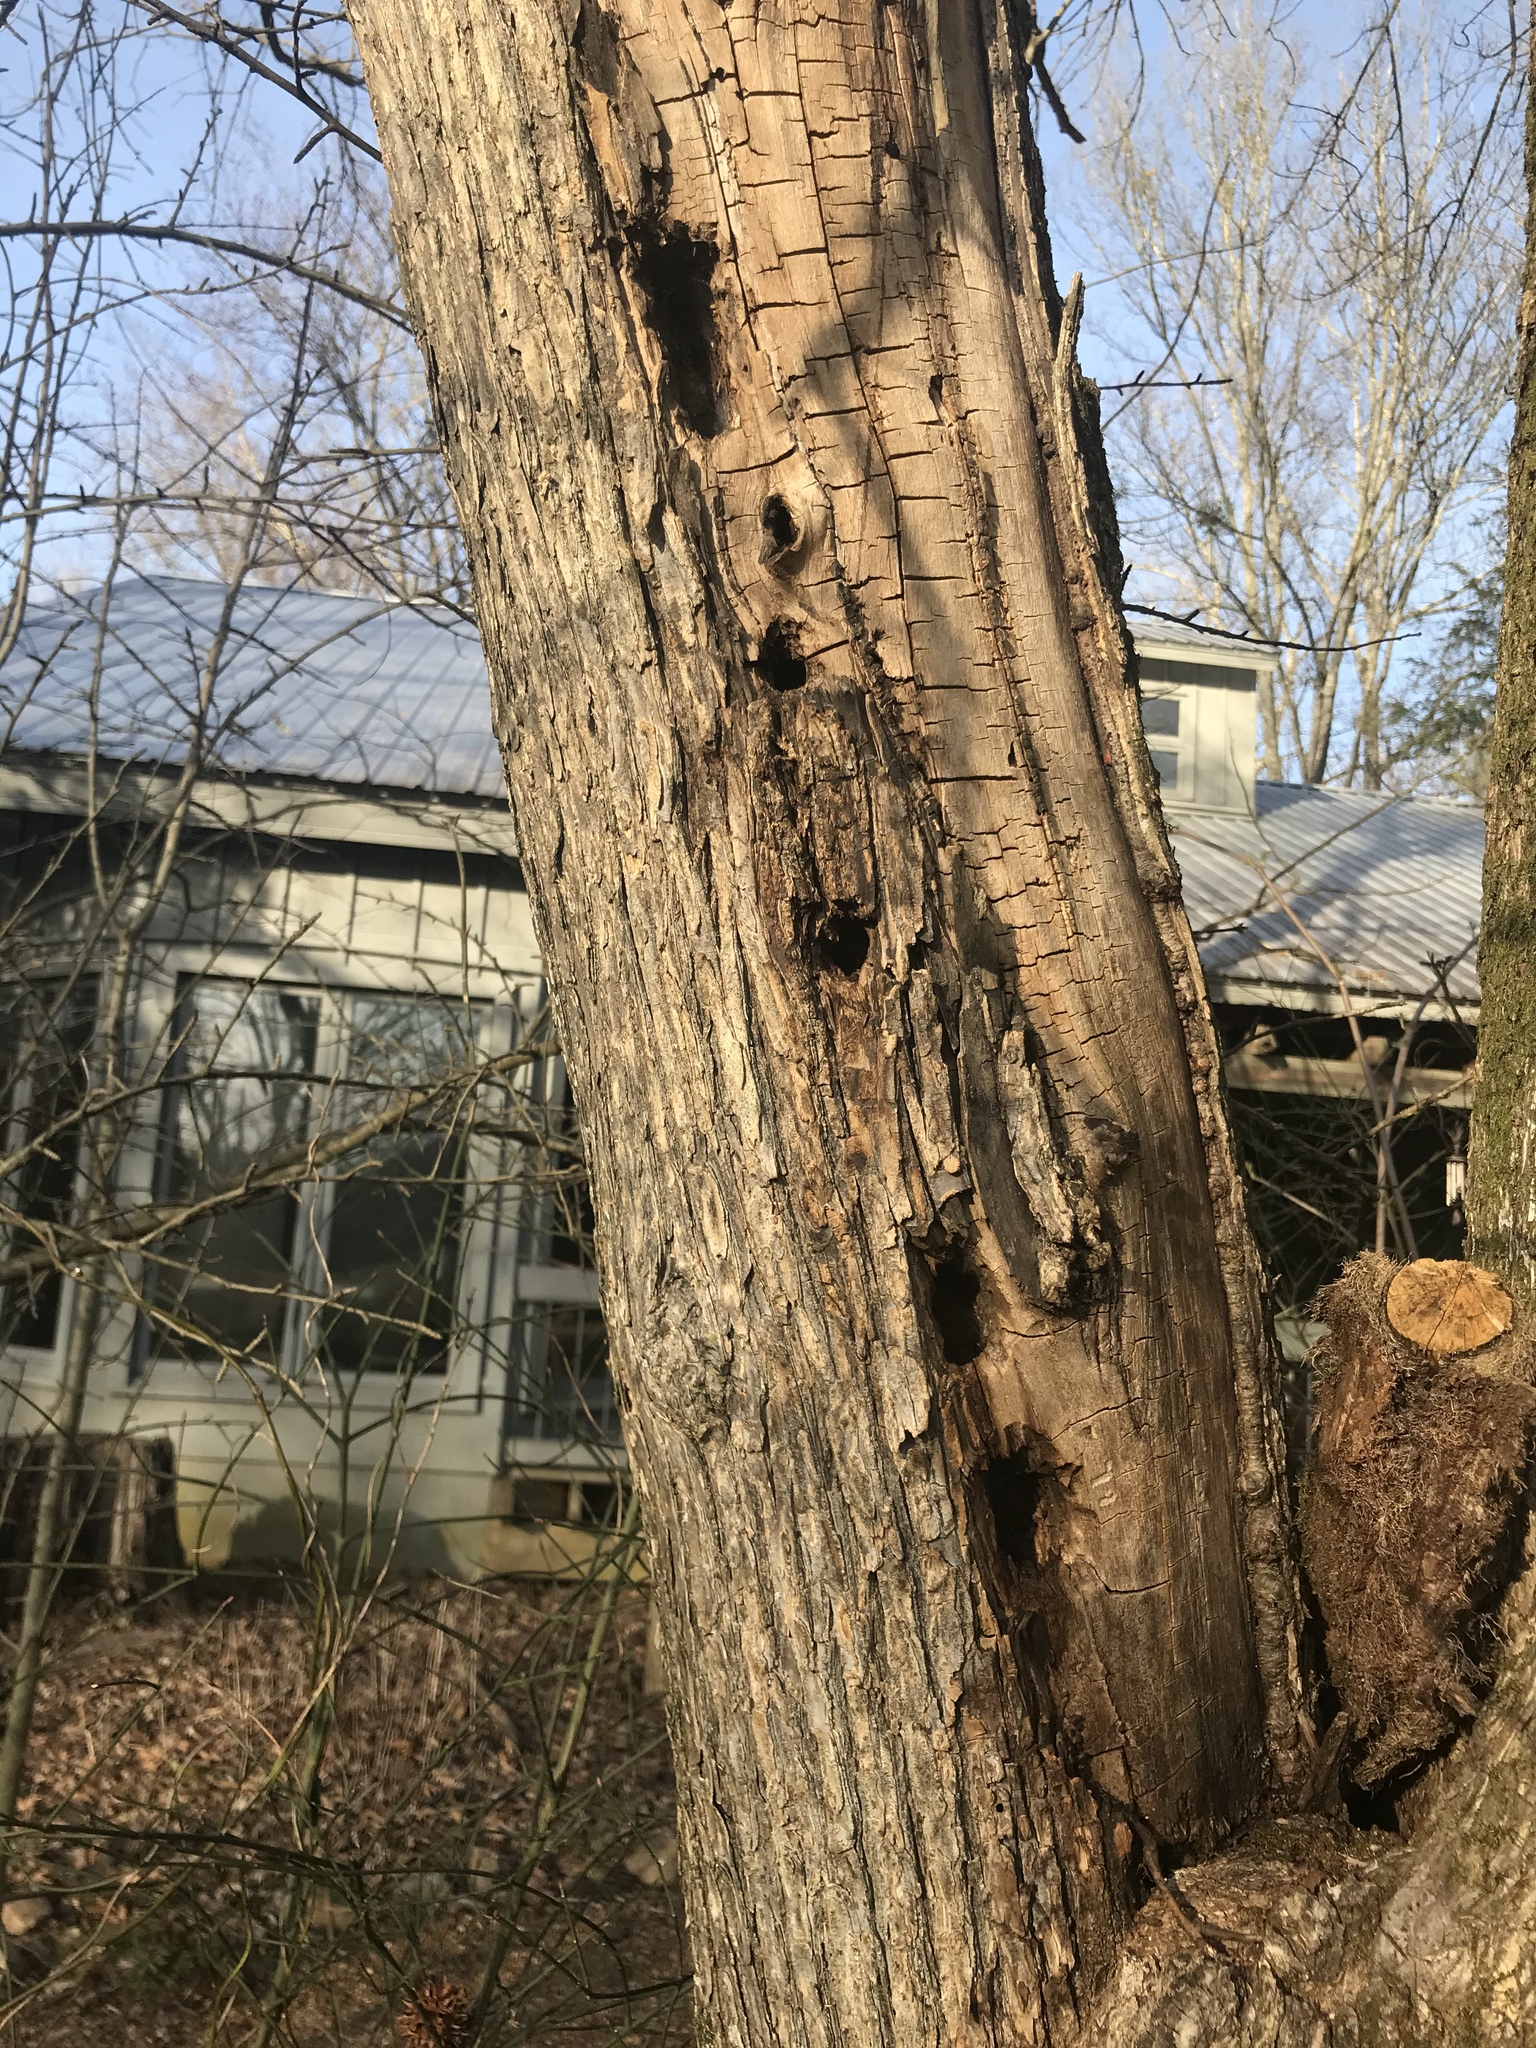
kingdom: Animalia
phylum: Chordata
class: Aves
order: Piciformes
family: Picidae
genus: Dryocopus
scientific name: Dryocopus pileatus
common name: Pileated woodpecker
